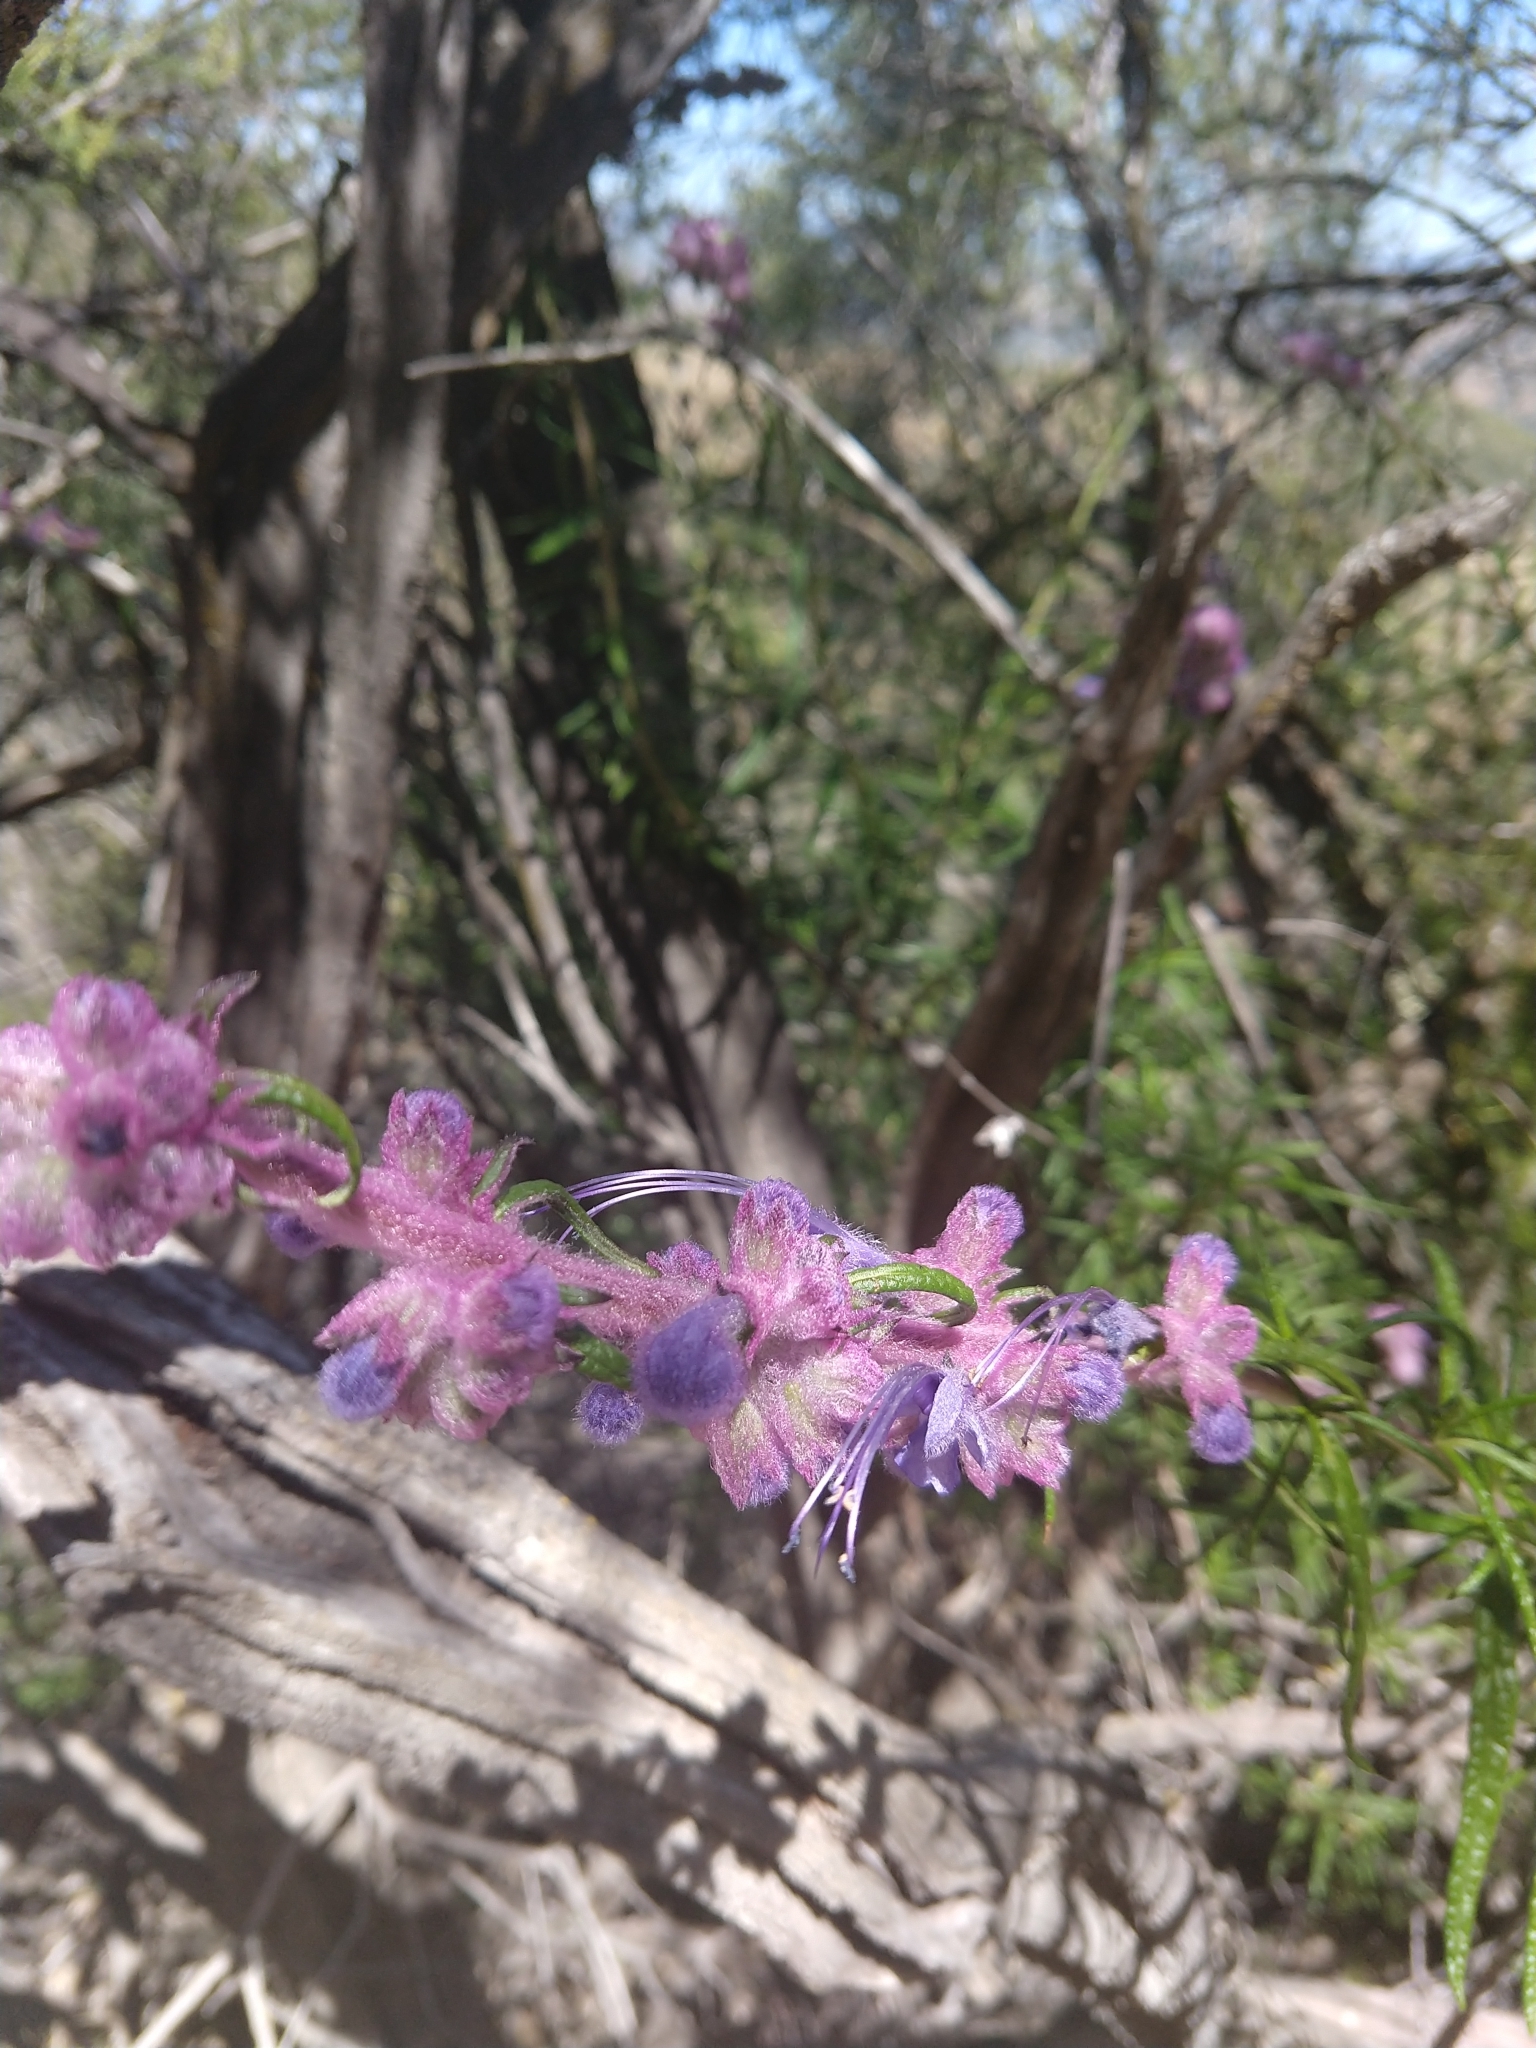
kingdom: Plantae
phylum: Tracheophyta
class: Magnoliopsida
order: Lamiales
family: Lamiaceae
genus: Trichostema
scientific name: Trichostema lanatum
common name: Woolly bluecurls
